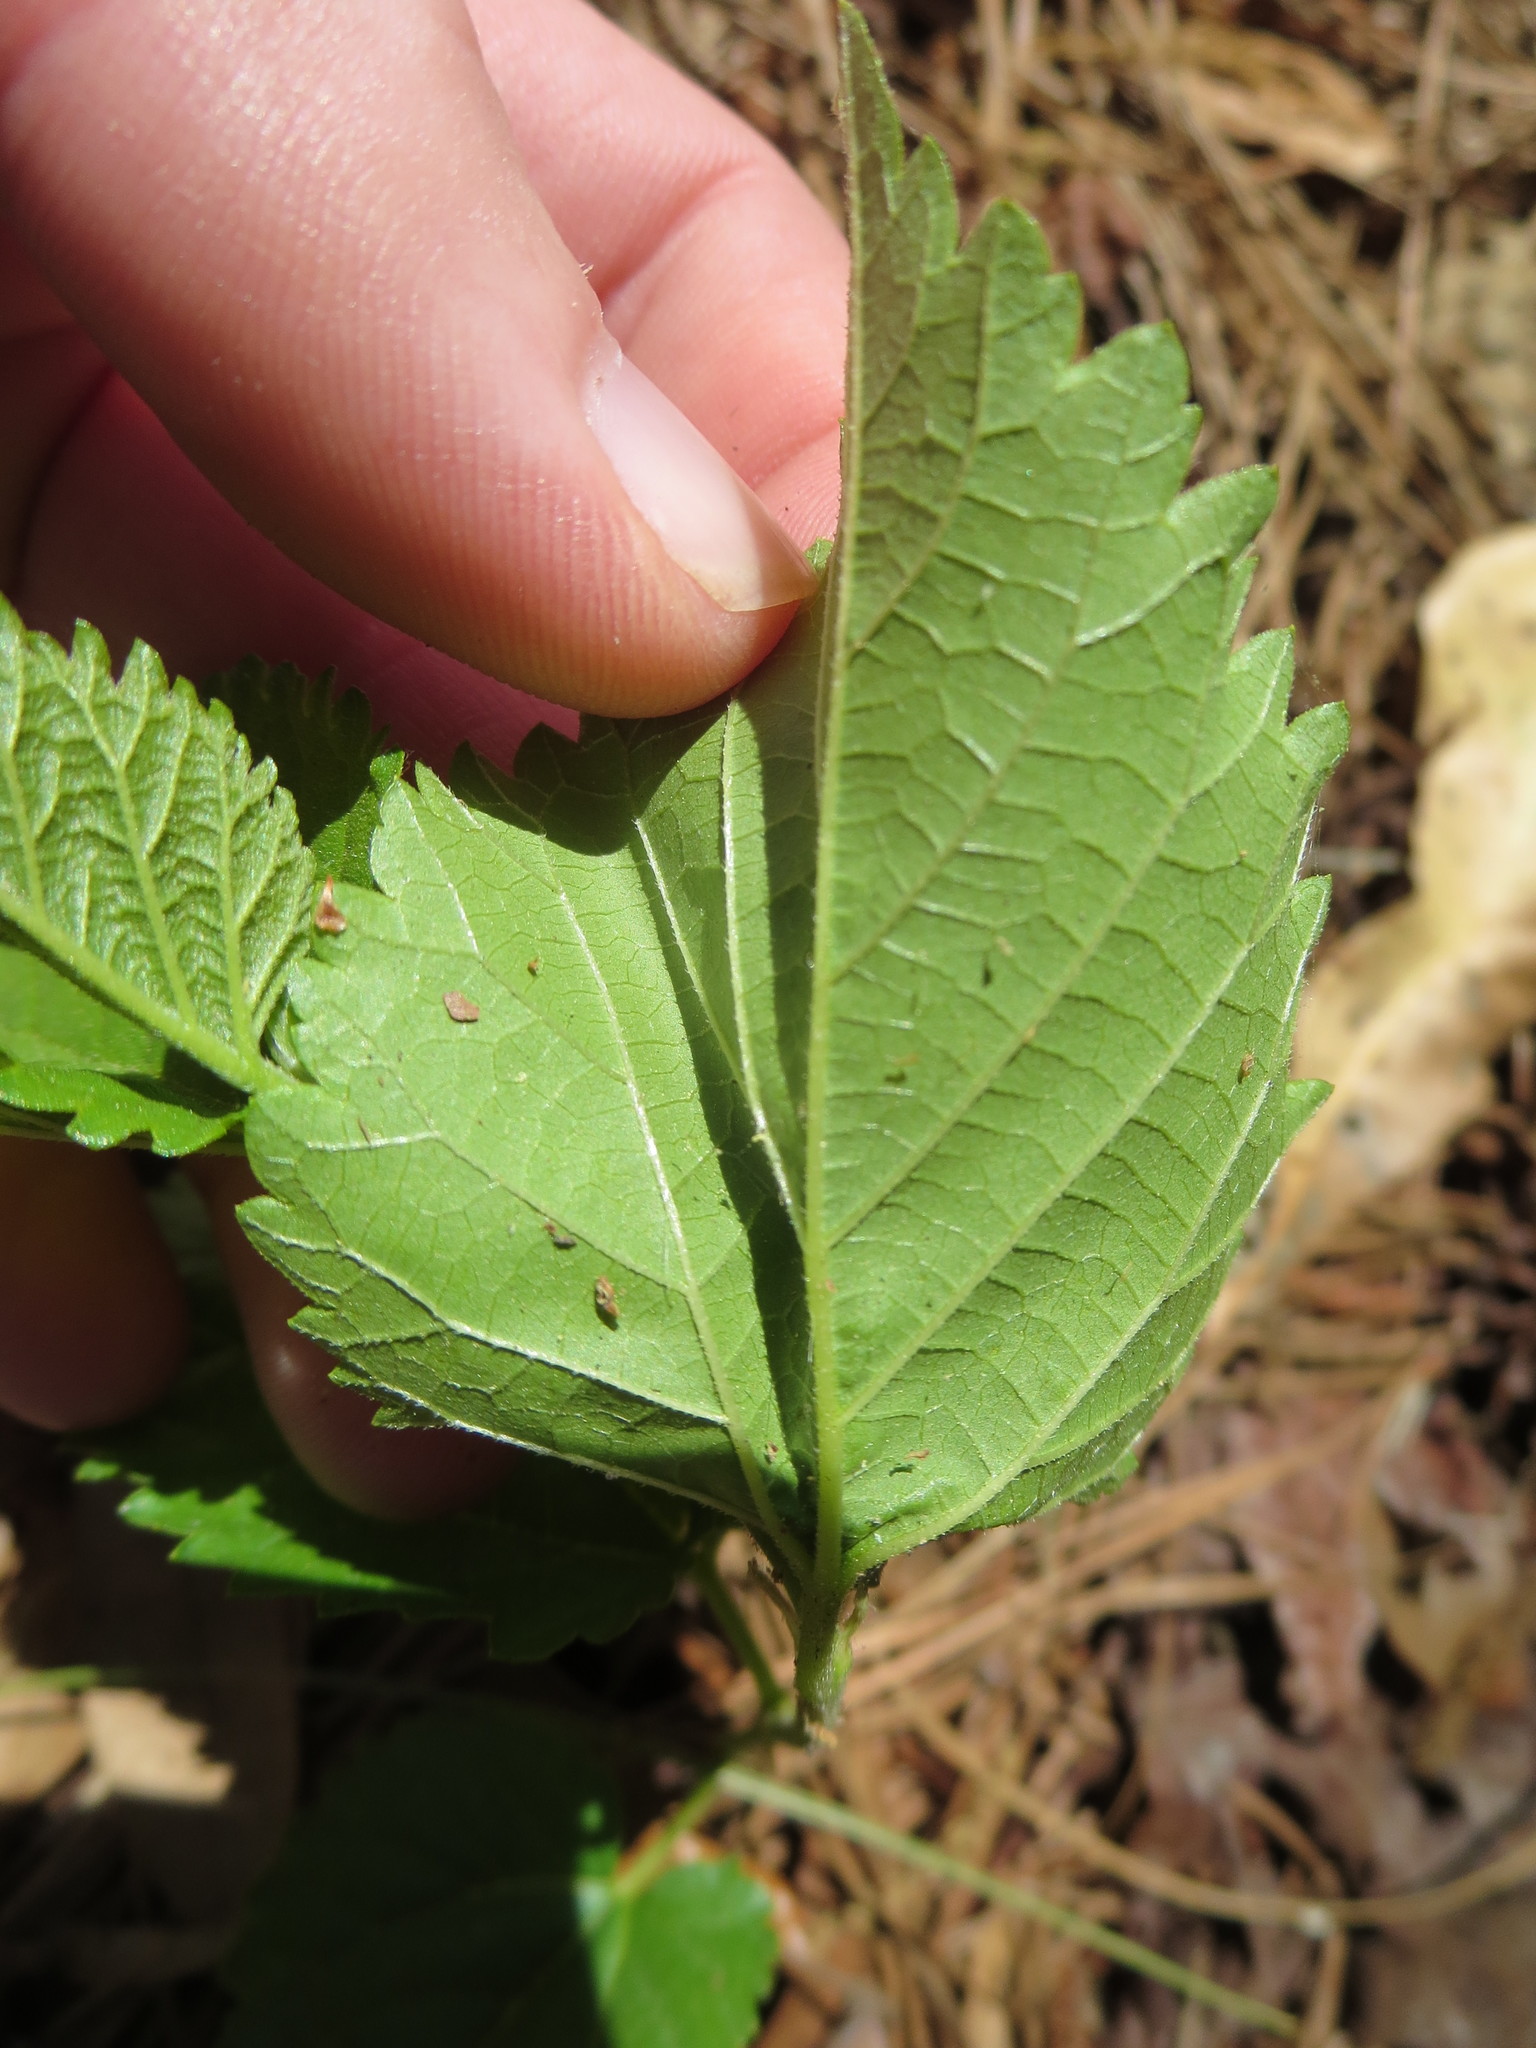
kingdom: Plantae
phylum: Tracheophyta
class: Magnoliopsida
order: Rosales
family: Moraceae
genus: Morus
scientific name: Morus alba
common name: White mulberry
